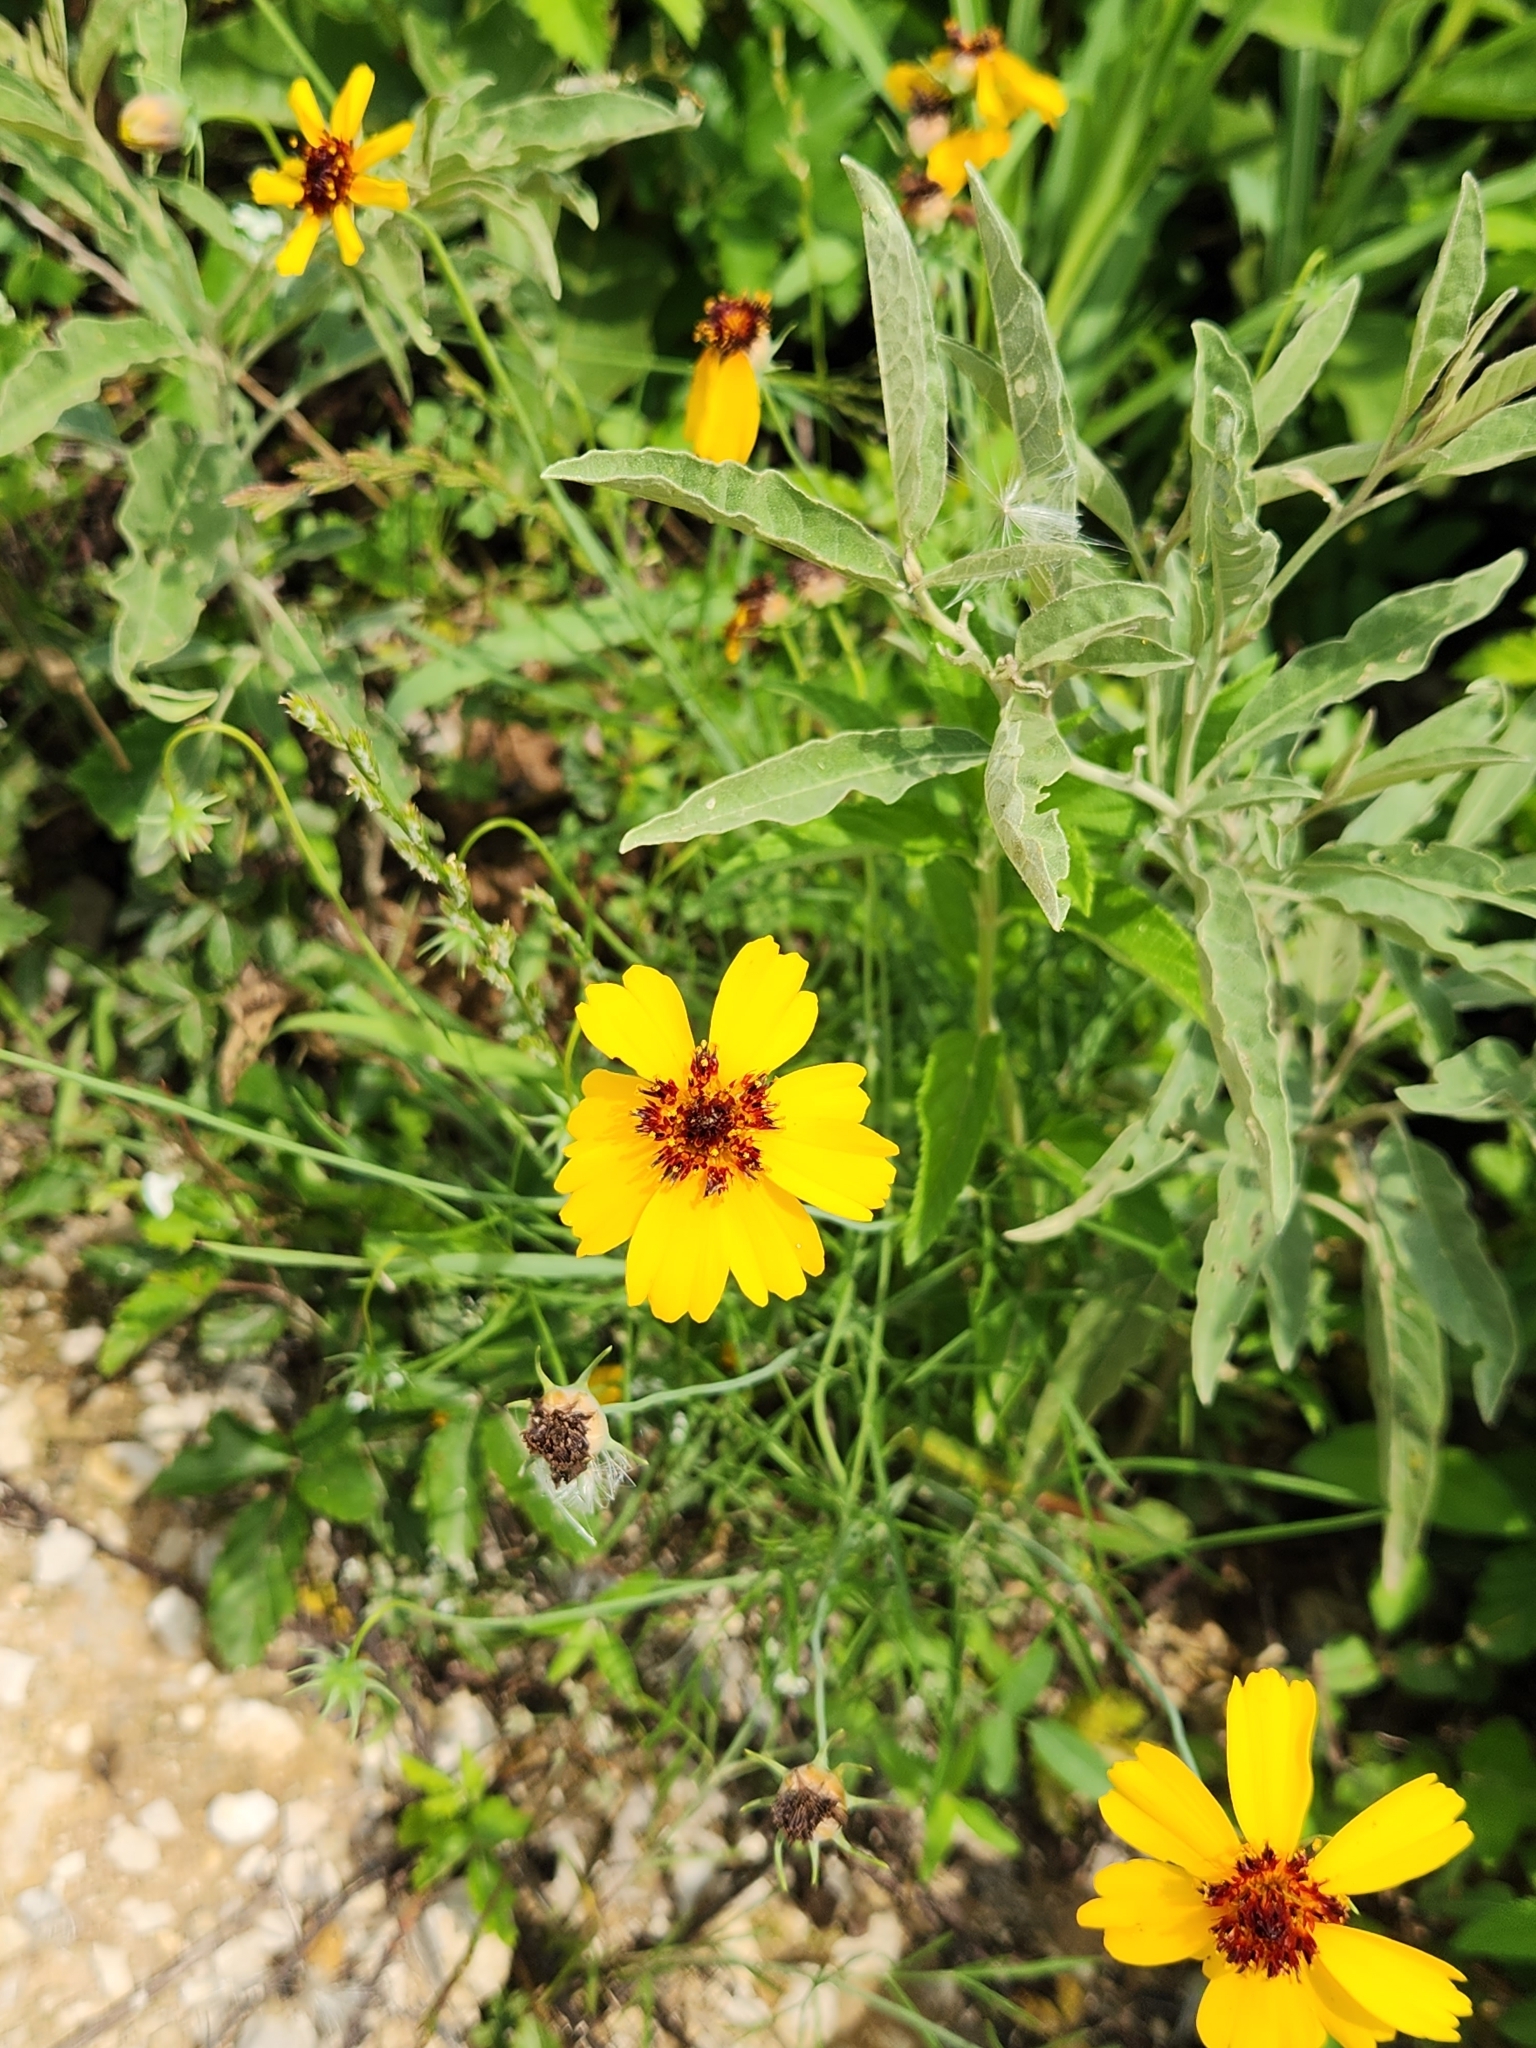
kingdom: Plantae
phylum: Tracheophyta
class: Magnoliopsida
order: Asterales
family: Asteraceae
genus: Thelesperma
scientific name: Thelesperma filifolium
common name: Stiff greenthread
